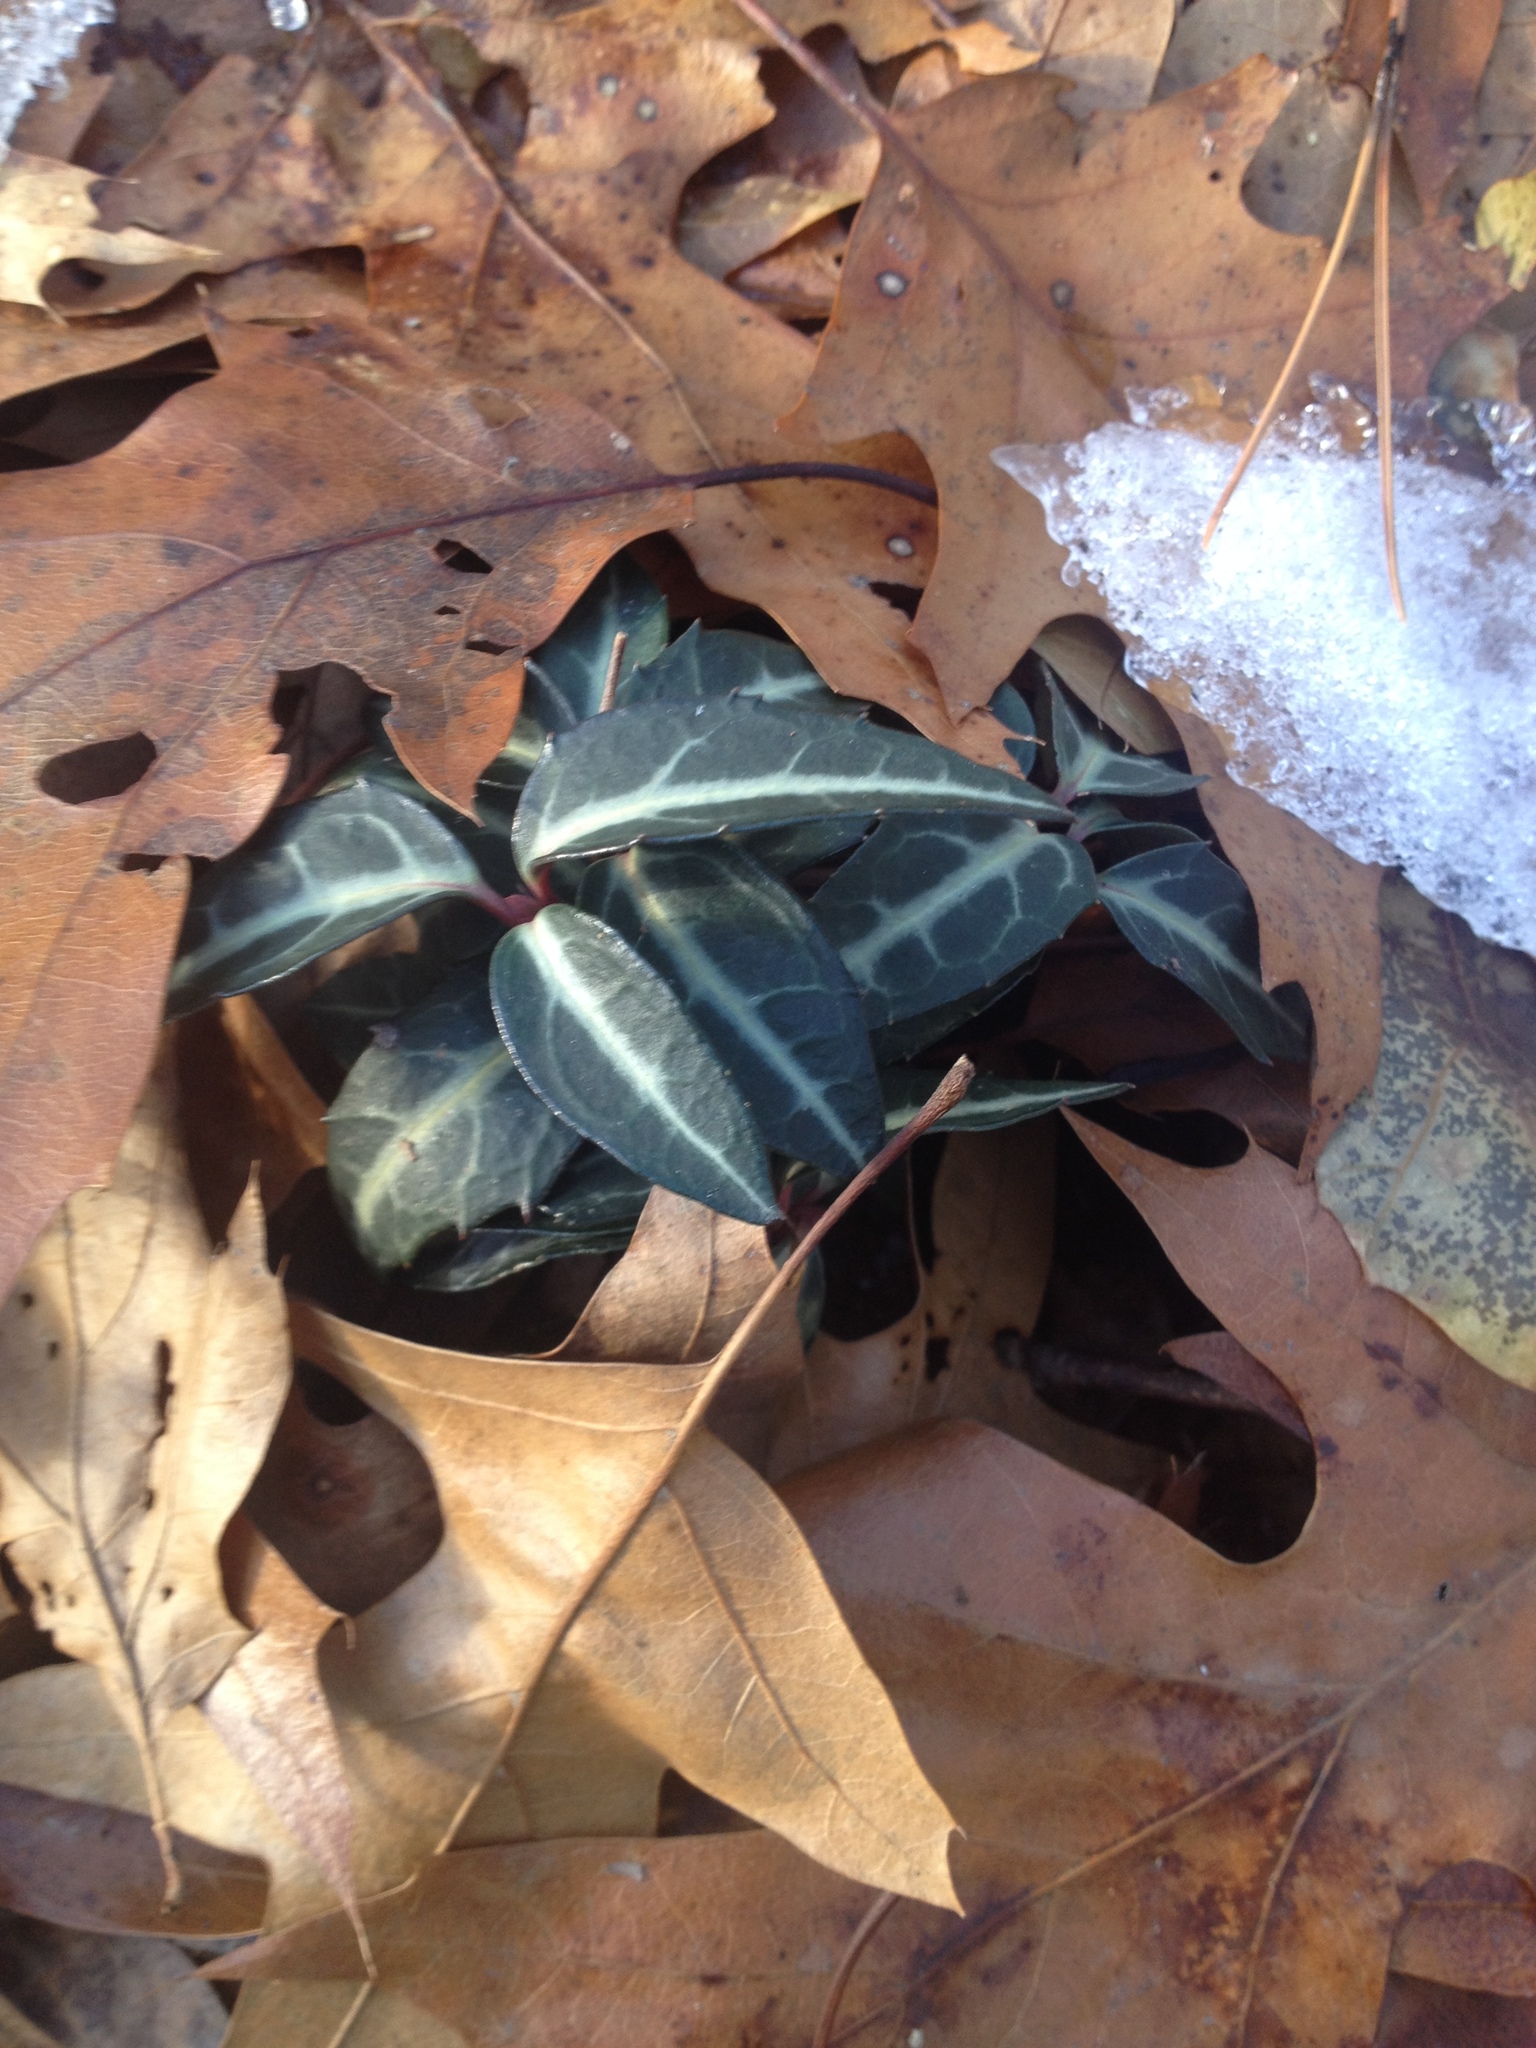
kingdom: Plantae
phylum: Tracheophyta
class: Magnoliopsida
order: Ericales
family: Ericaceae
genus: Chimaphila
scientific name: Chimaphila maculata
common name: Spotted pipsissewa
